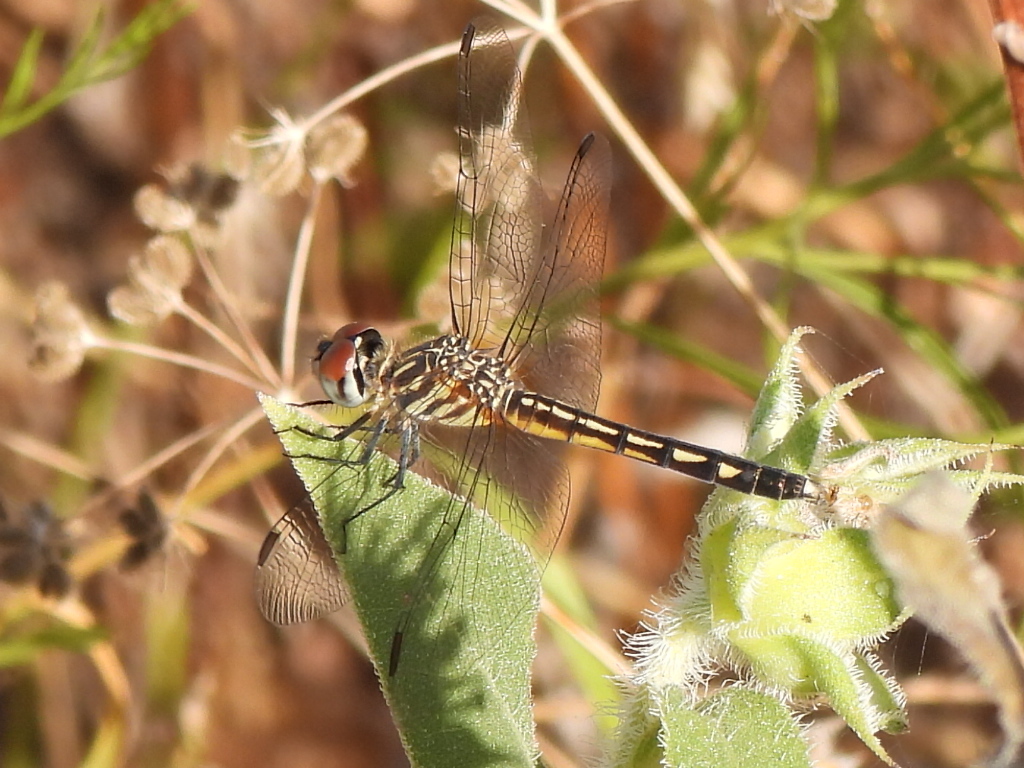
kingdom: Animalia
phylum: Arthropoda
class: Insecta
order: Odonata
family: Libellulidae
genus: Pachydiplax
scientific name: Pachydiplax longipennis
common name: Blue dasher
